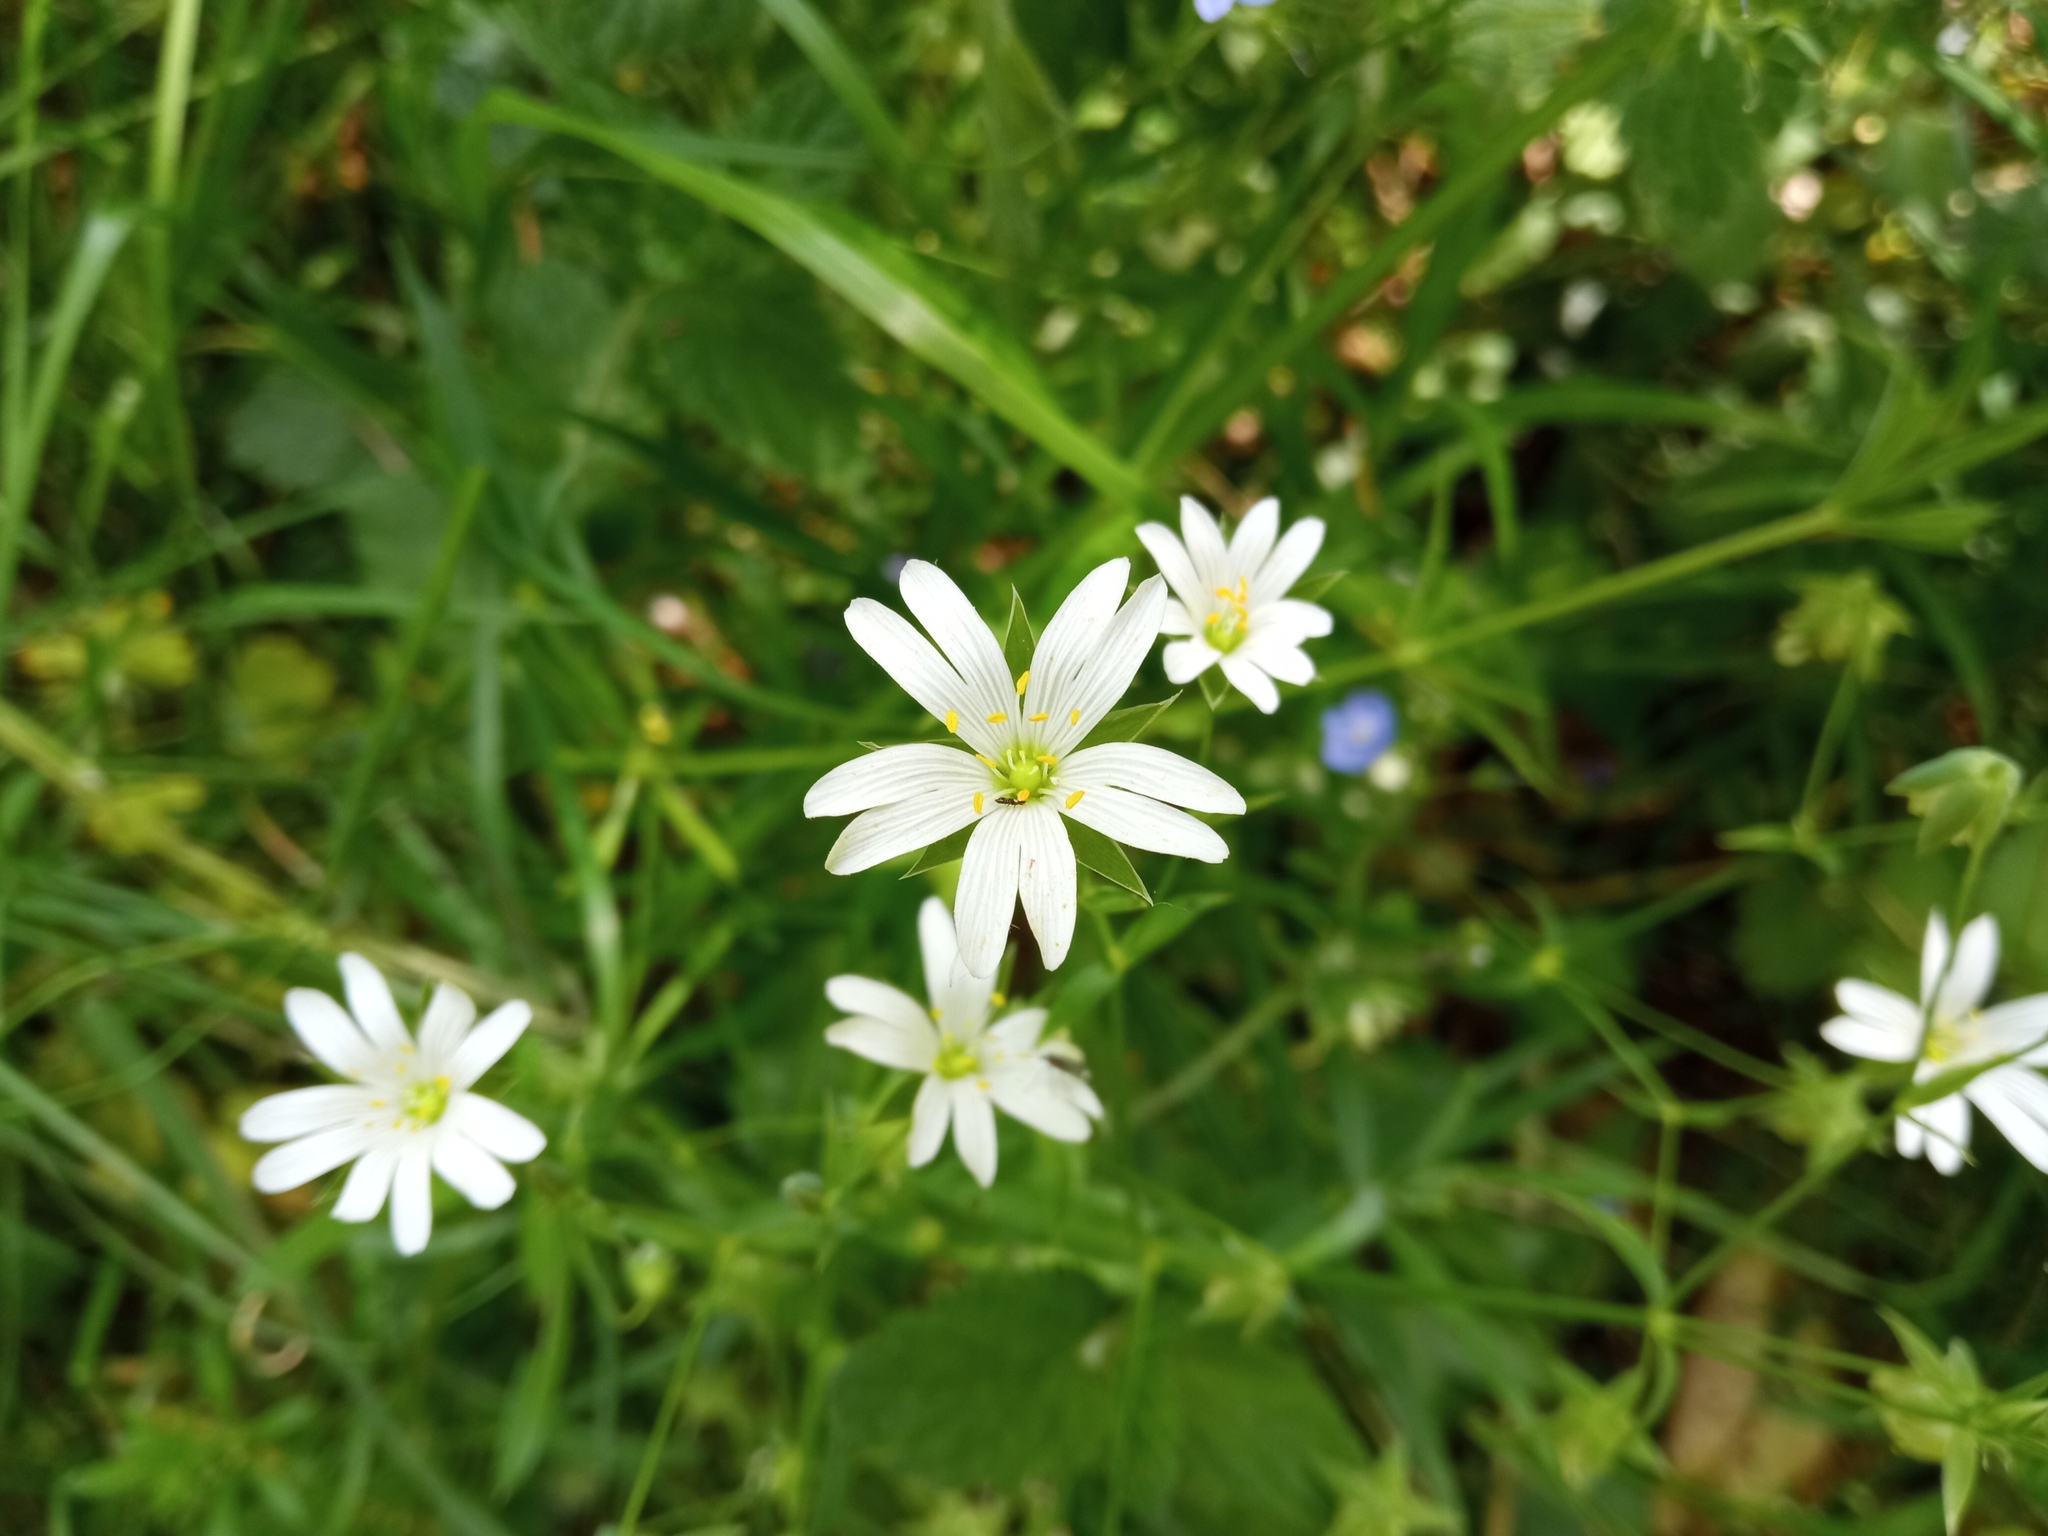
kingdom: Plantae
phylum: Tracheophyta
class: Magnoliopsida
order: Caryophyllales
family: Caryophyllaceae
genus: Rabelera
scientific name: Rabelera holostea
